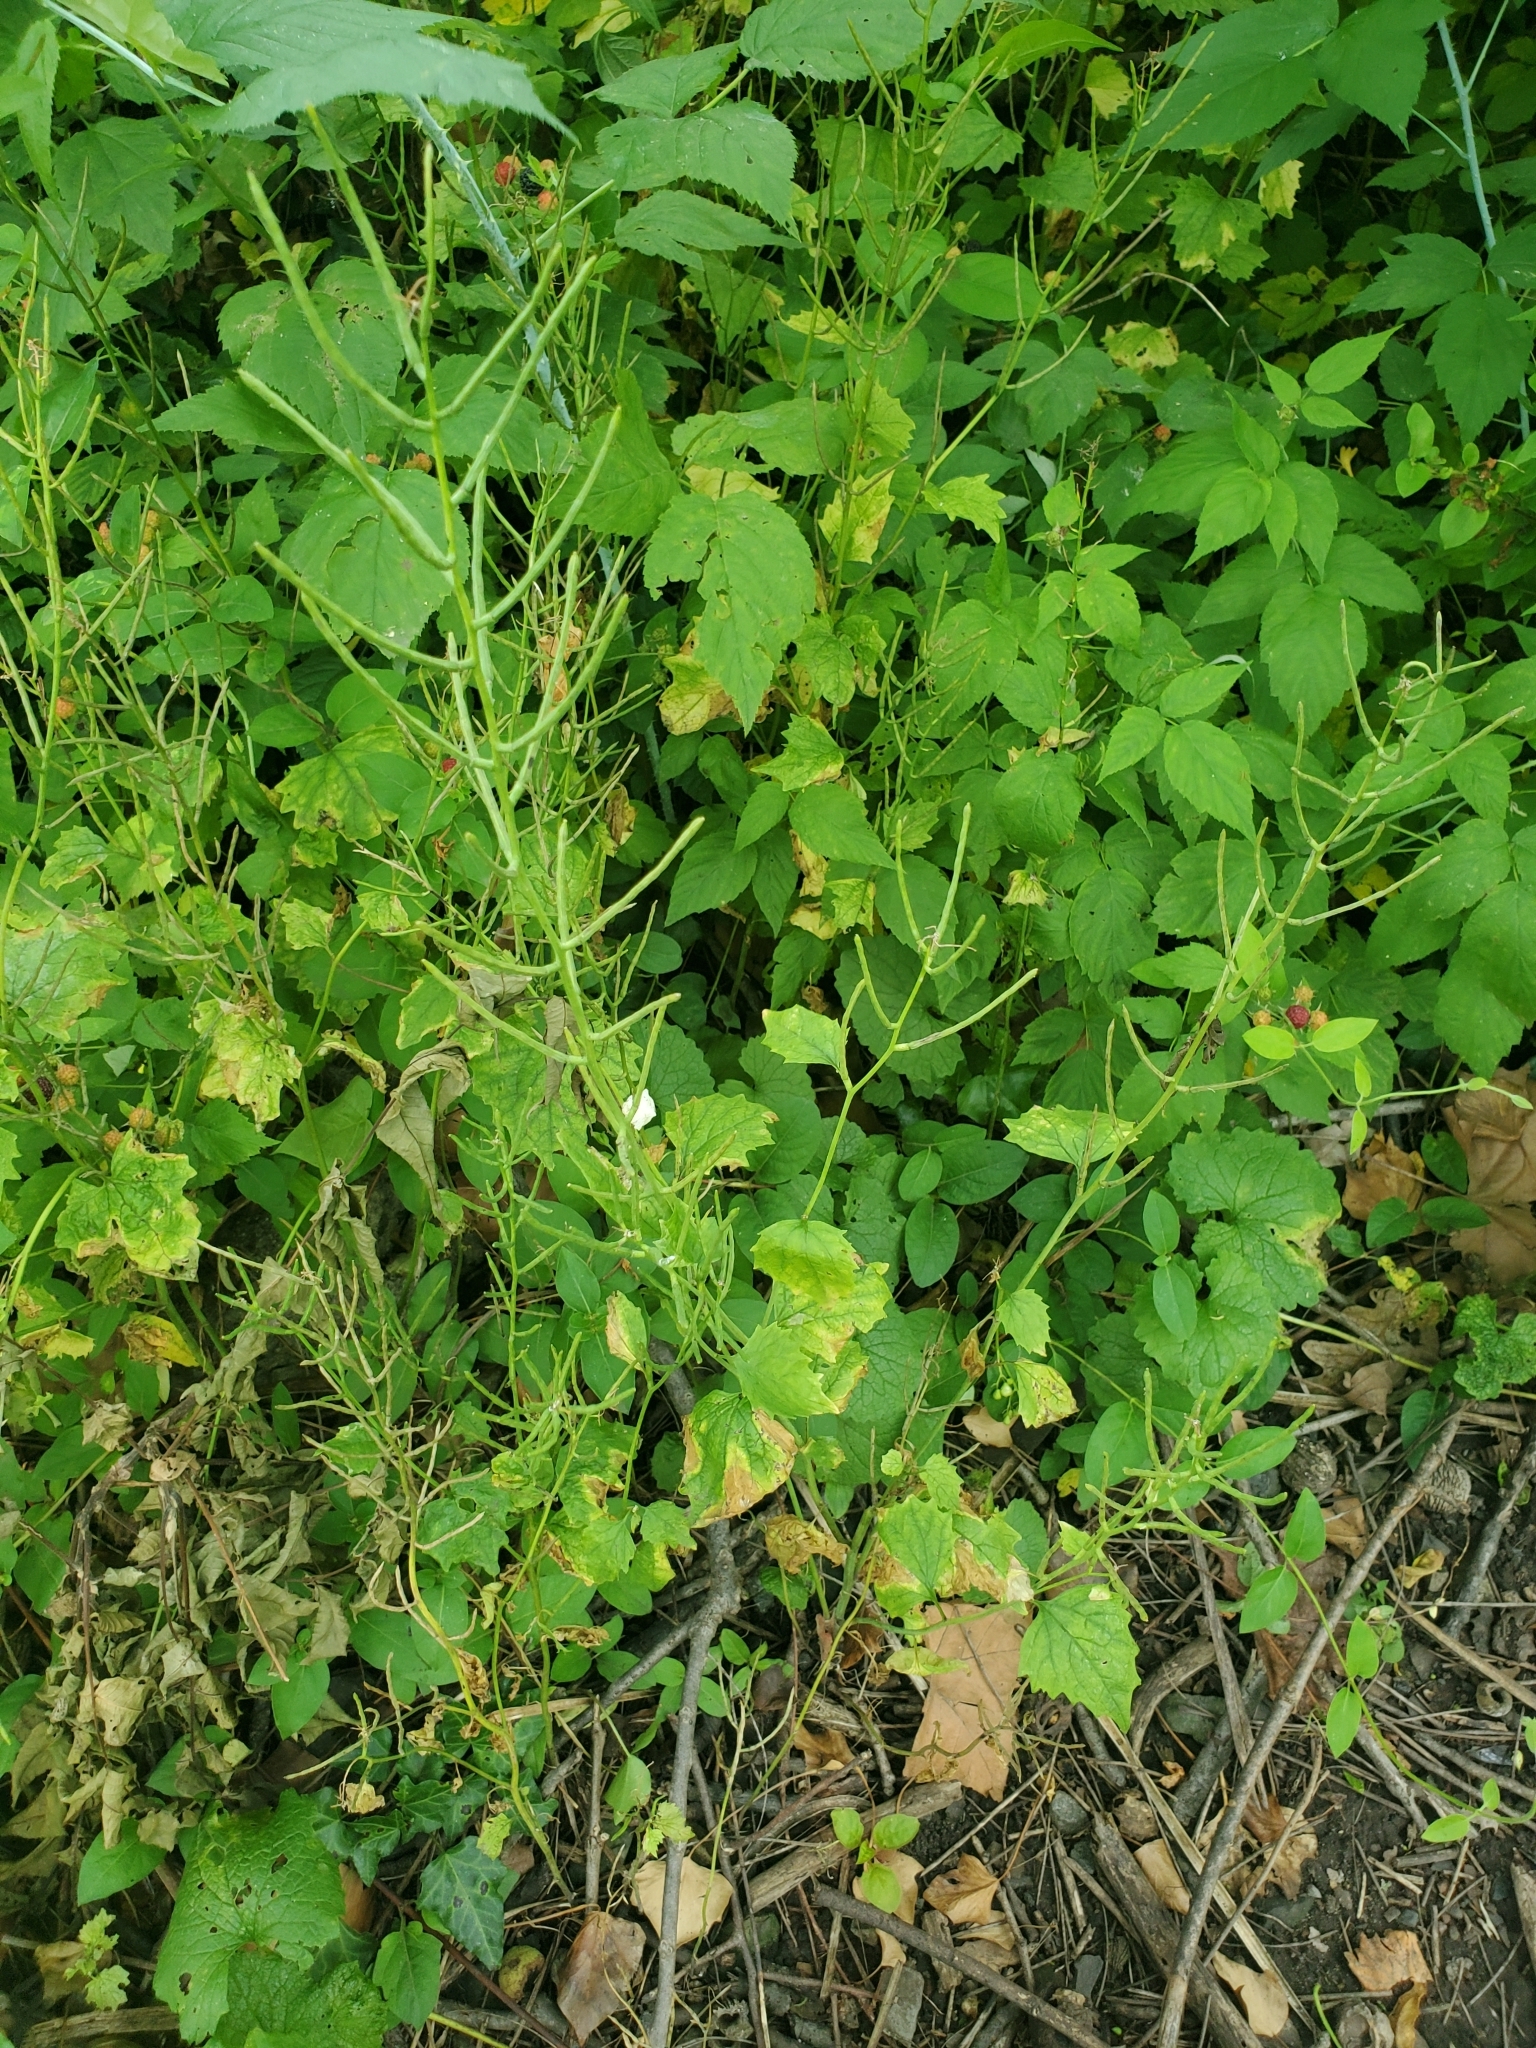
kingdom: Plantae
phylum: Tracheophyta
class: Magnoliopsida
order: Brassicales
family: Brassicaceae
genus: Alliaria
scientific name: Alliaria petiolata
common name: Garlic mustard
